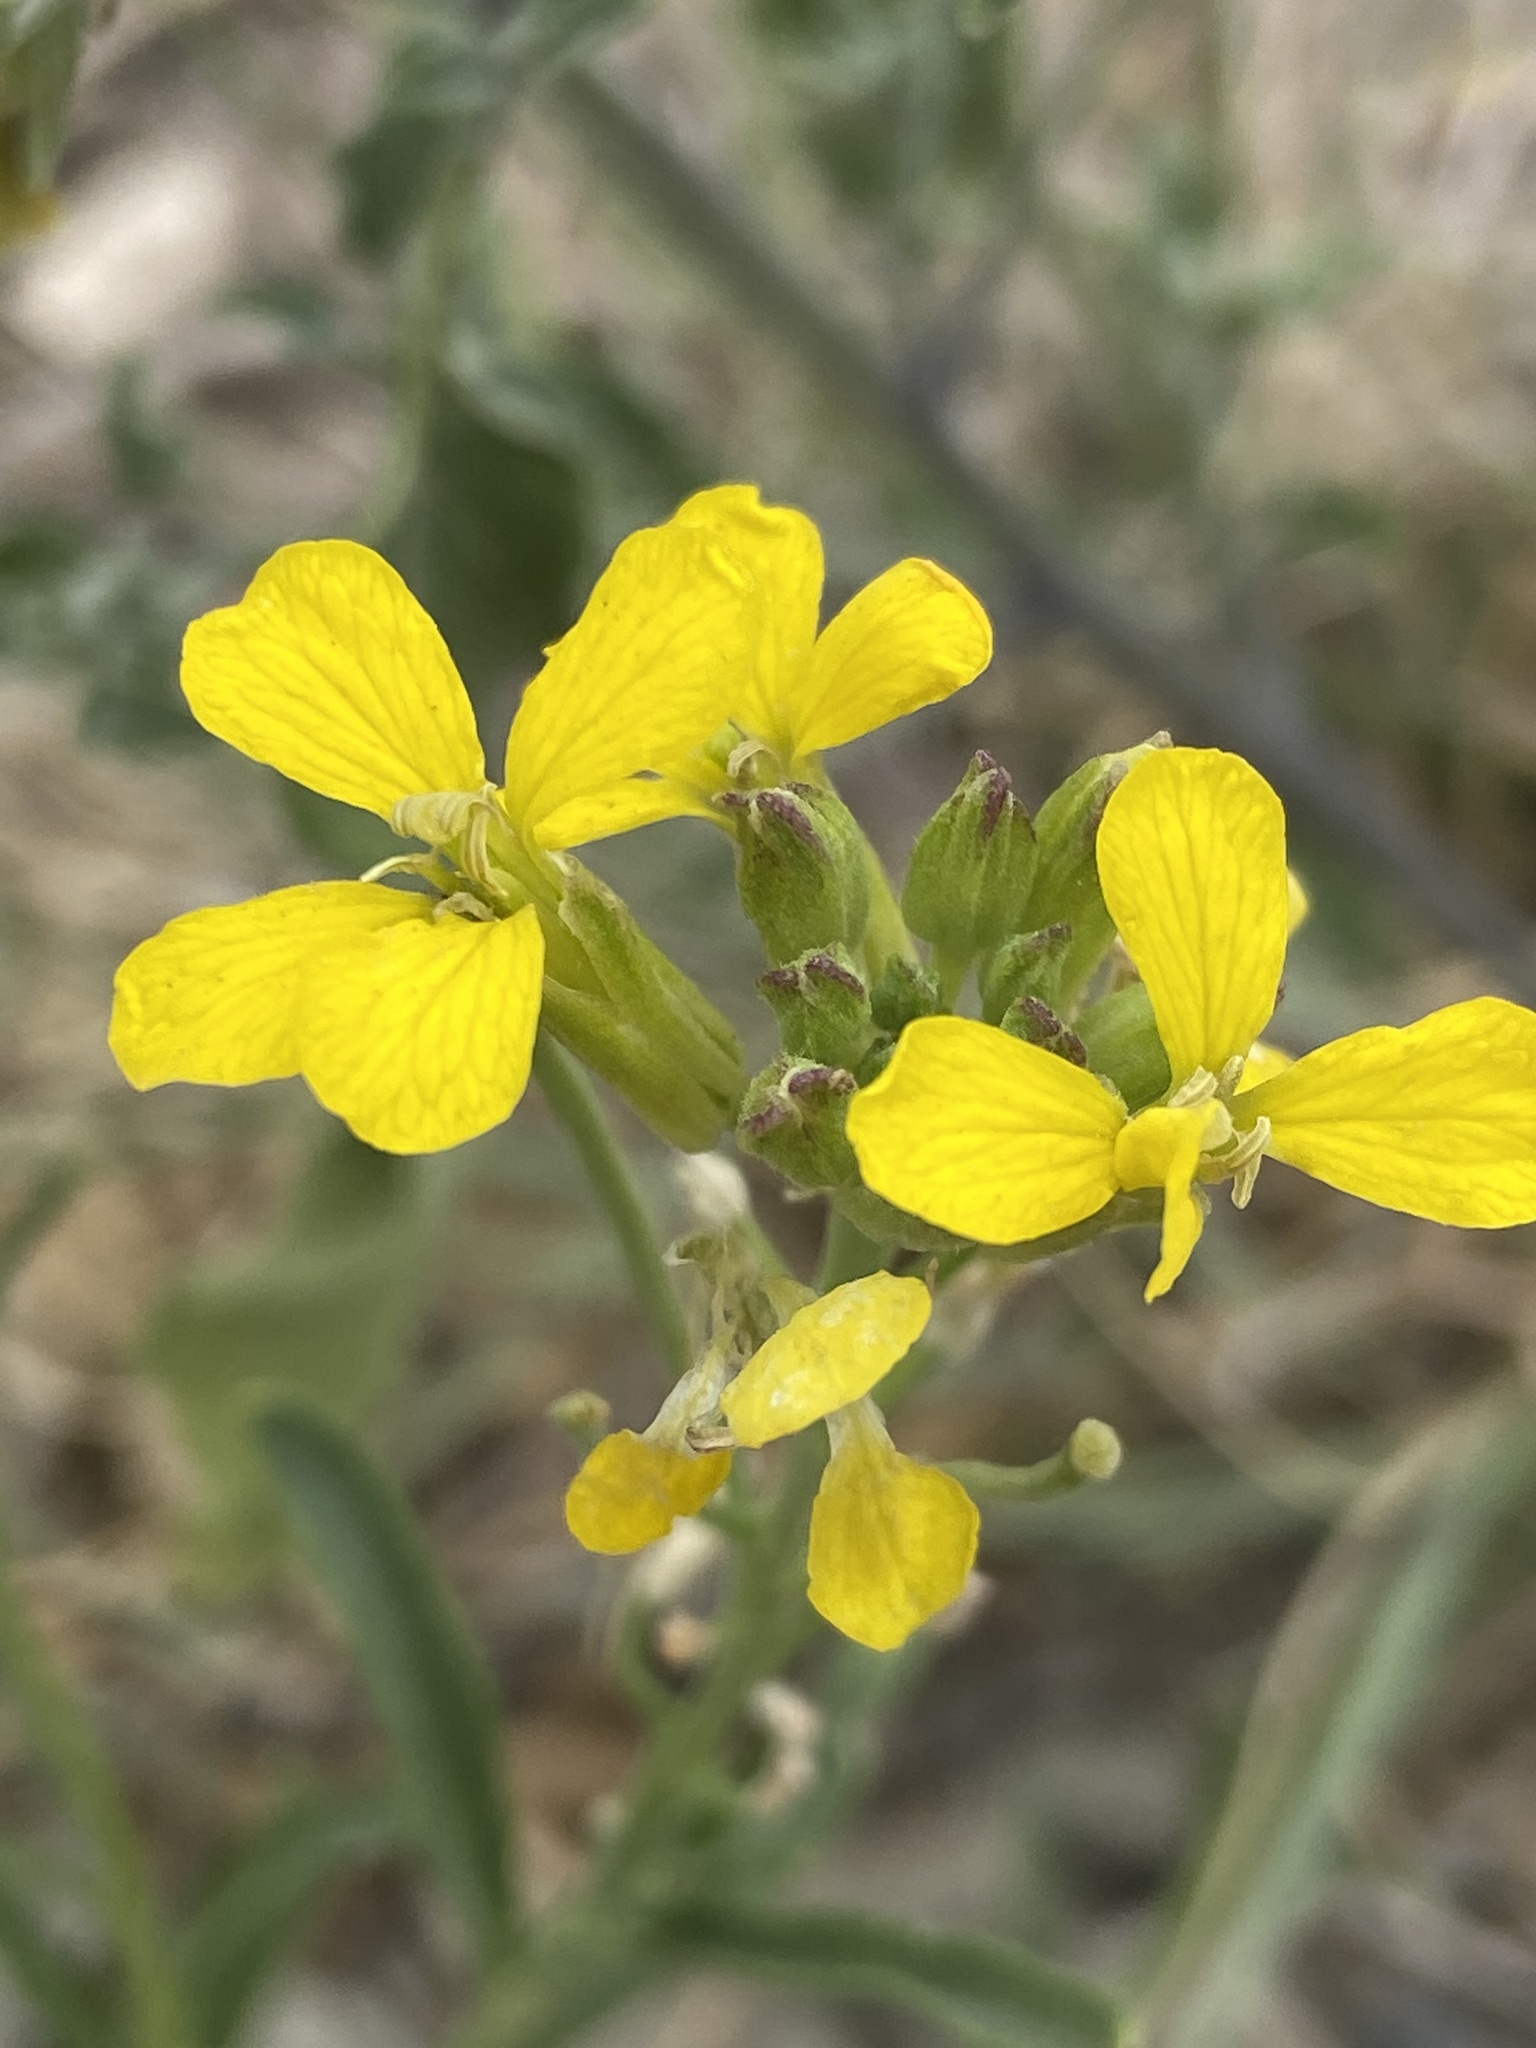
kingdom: Plantae
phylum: Tracheophyta
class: Magnoliopsida
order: Brassicales
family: Brassicaceae
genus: Erysimum
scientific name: Erysimum capitatum
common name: Western wallflower
